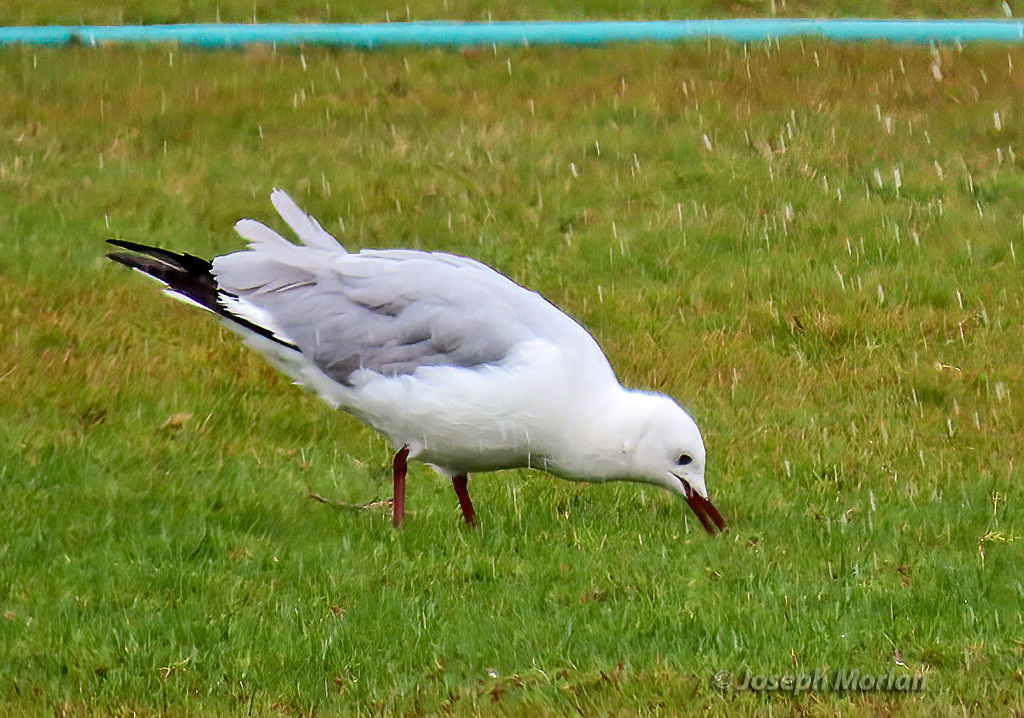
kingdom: Animalia
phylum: Chordata
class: Aves
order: Charadriiformes
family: Laridae
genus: Chroicocephalus
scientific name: Chroicocephalus hartlaubii
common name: Hartlaub's gull
